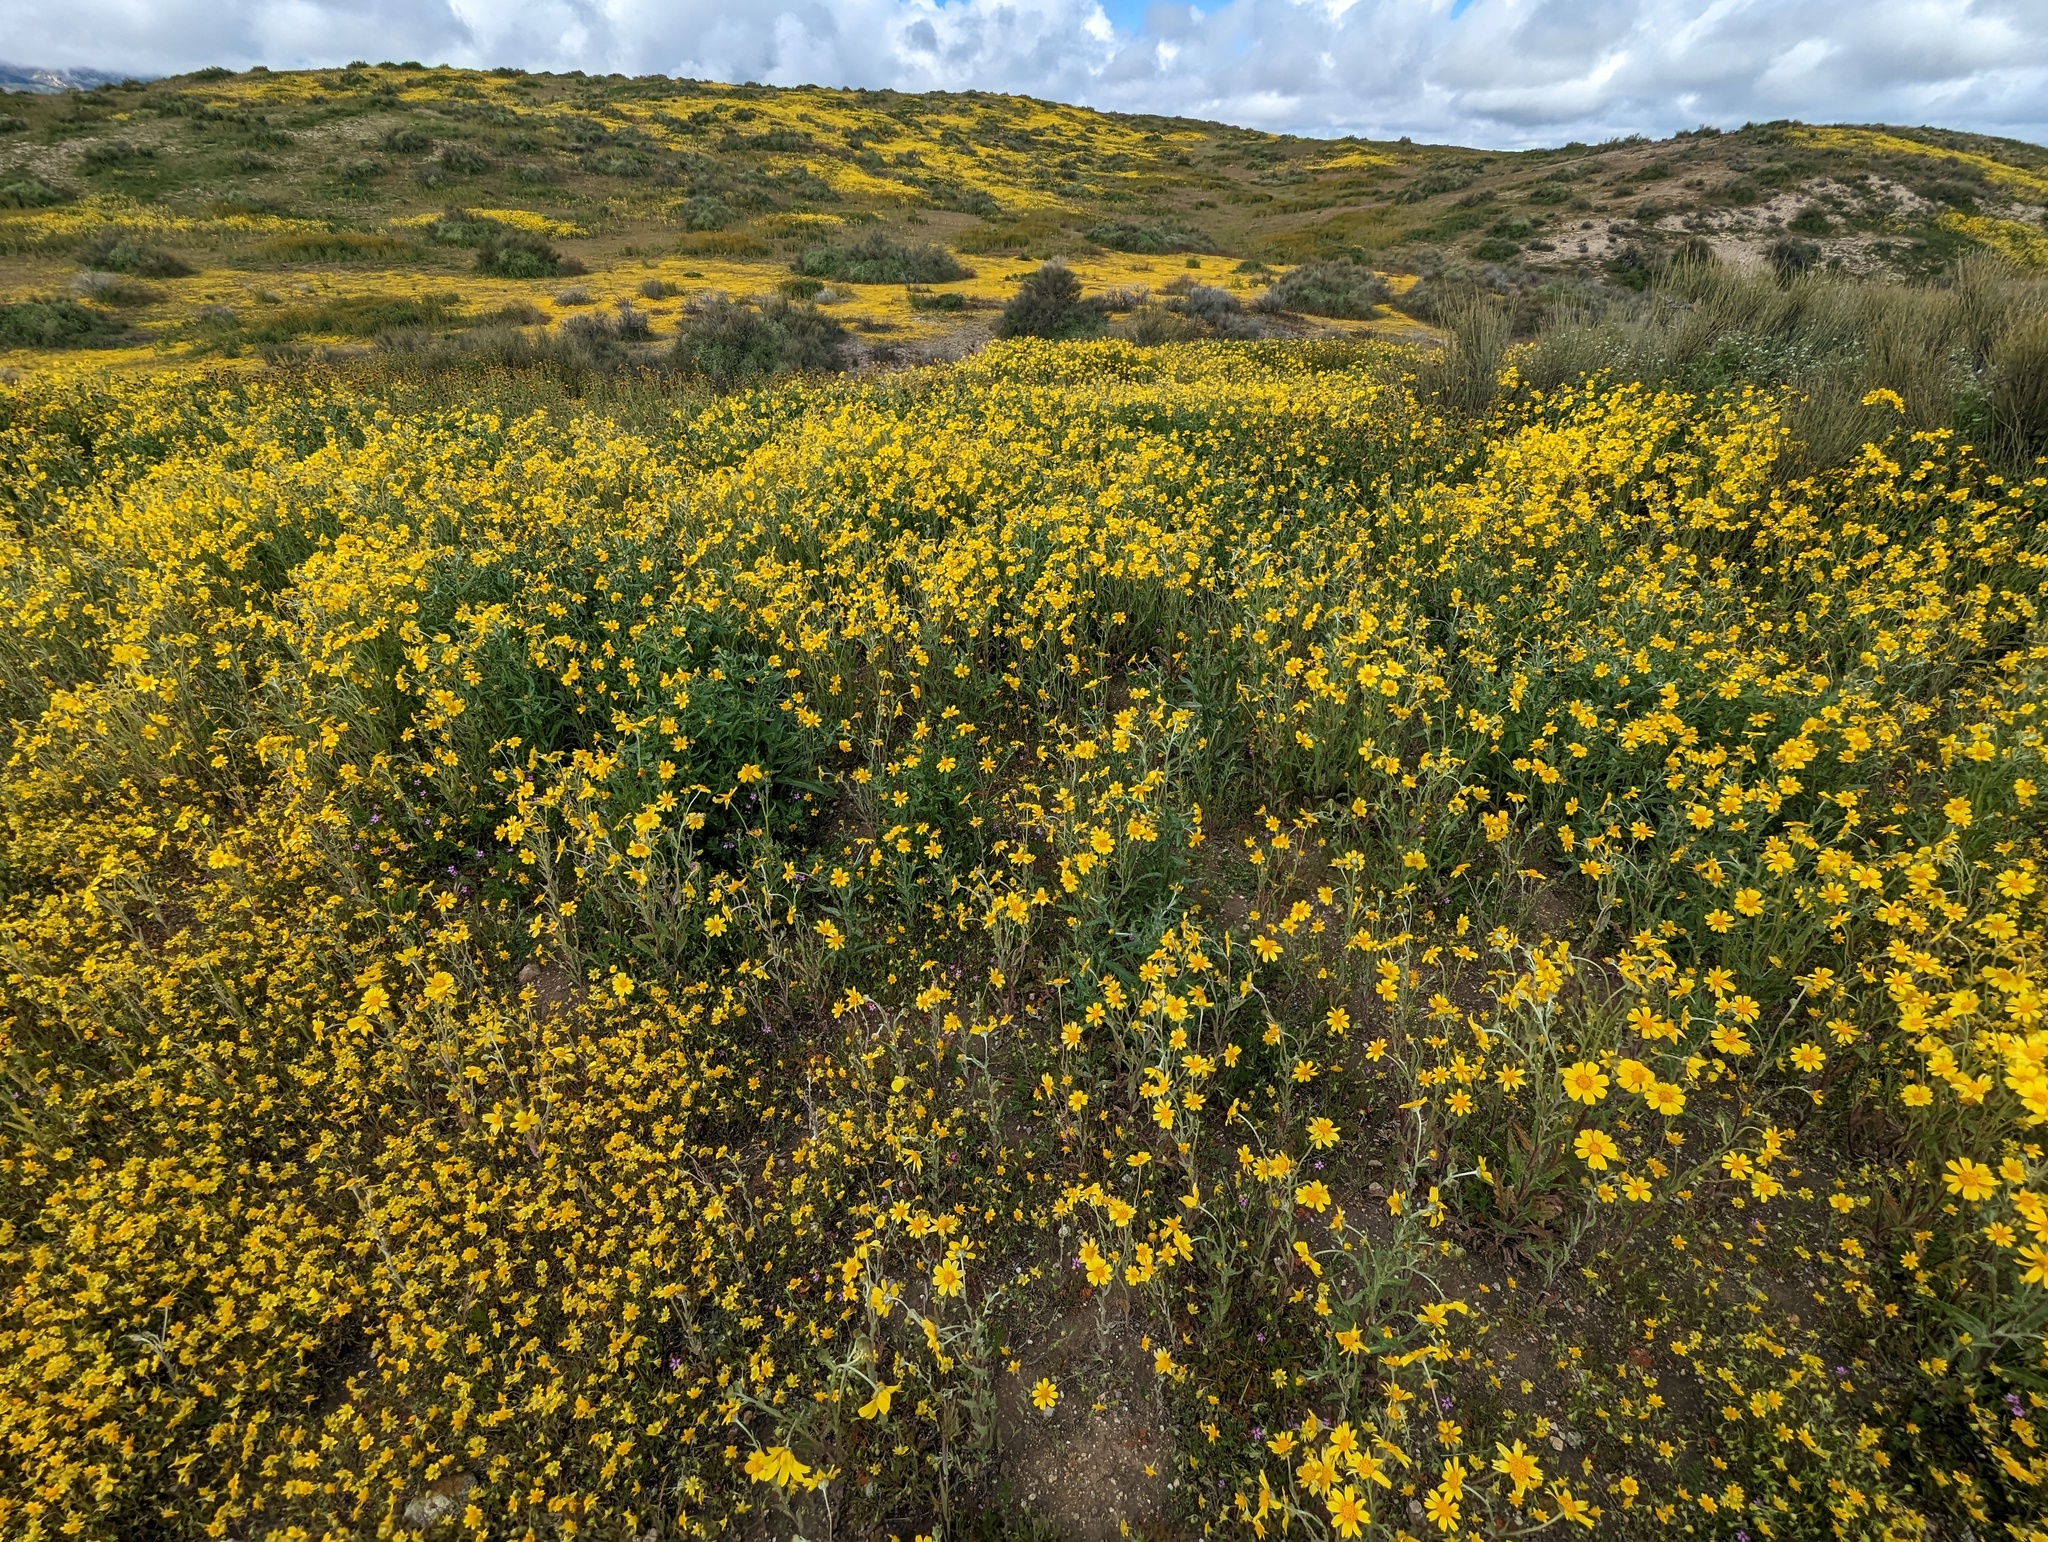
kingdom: Plantae
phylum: Tracheophyta
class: Magnoliopsida
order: Asterales
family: Asteraceae
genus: Monolopia
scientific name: Monolopia lanceolata
